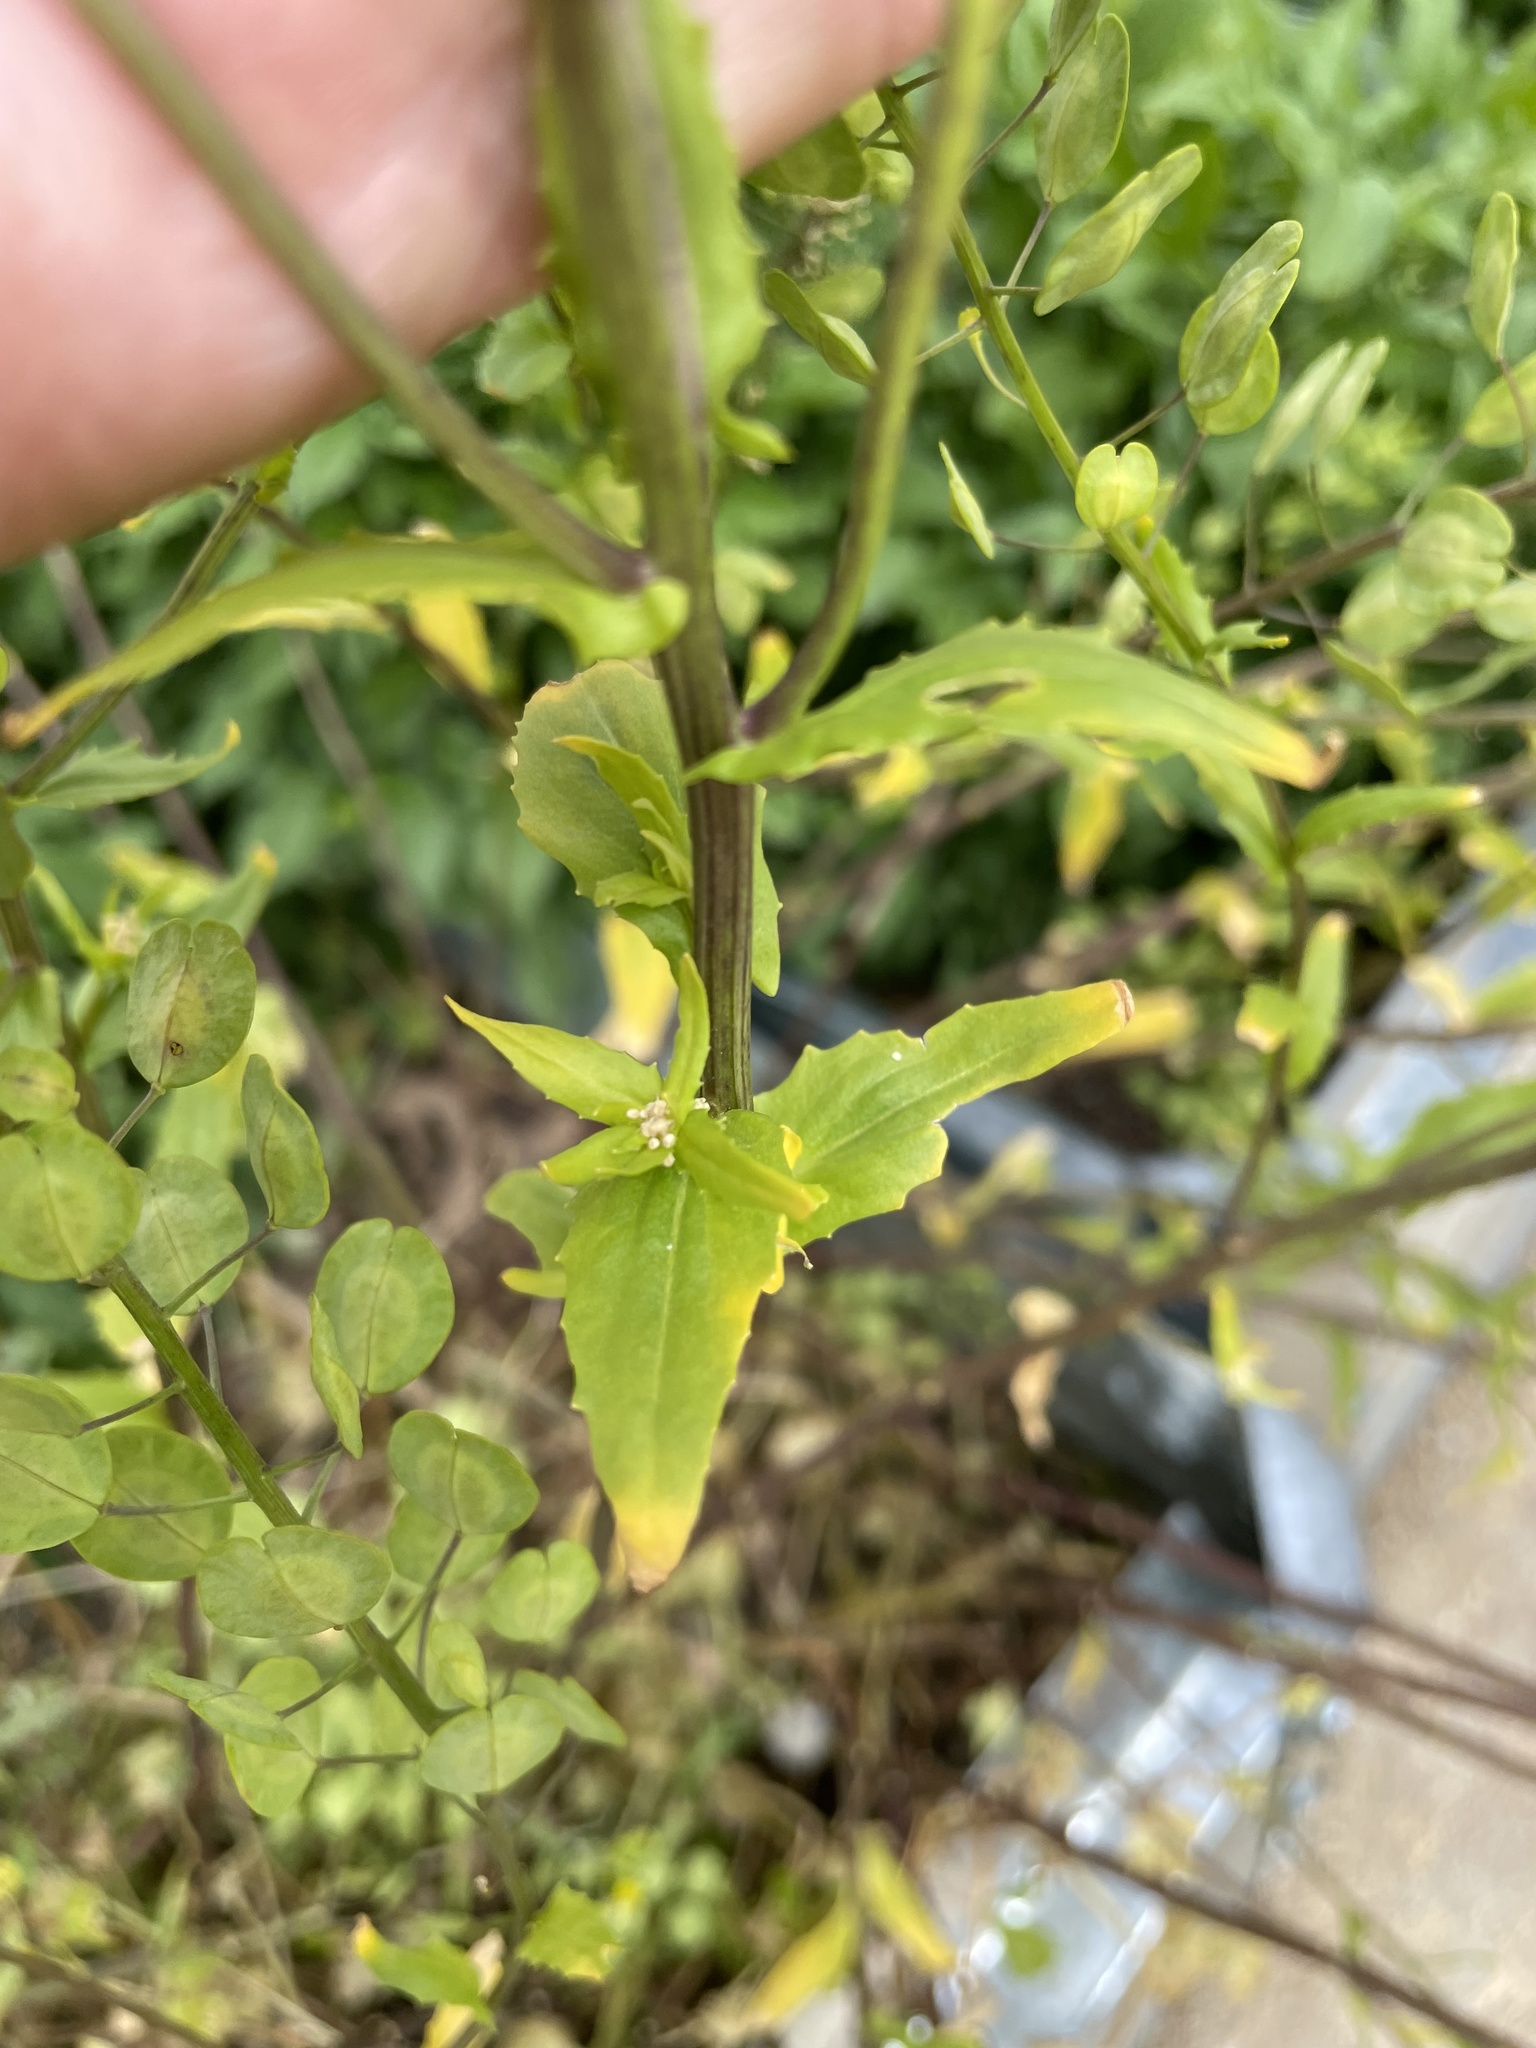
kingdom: Plantae
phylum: Tracheophyta
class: Magnoliopsida
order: Brassicales
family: Brassicaceae
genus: Thlaspi
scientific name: Thlaspi arvense
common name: Field pennycress
